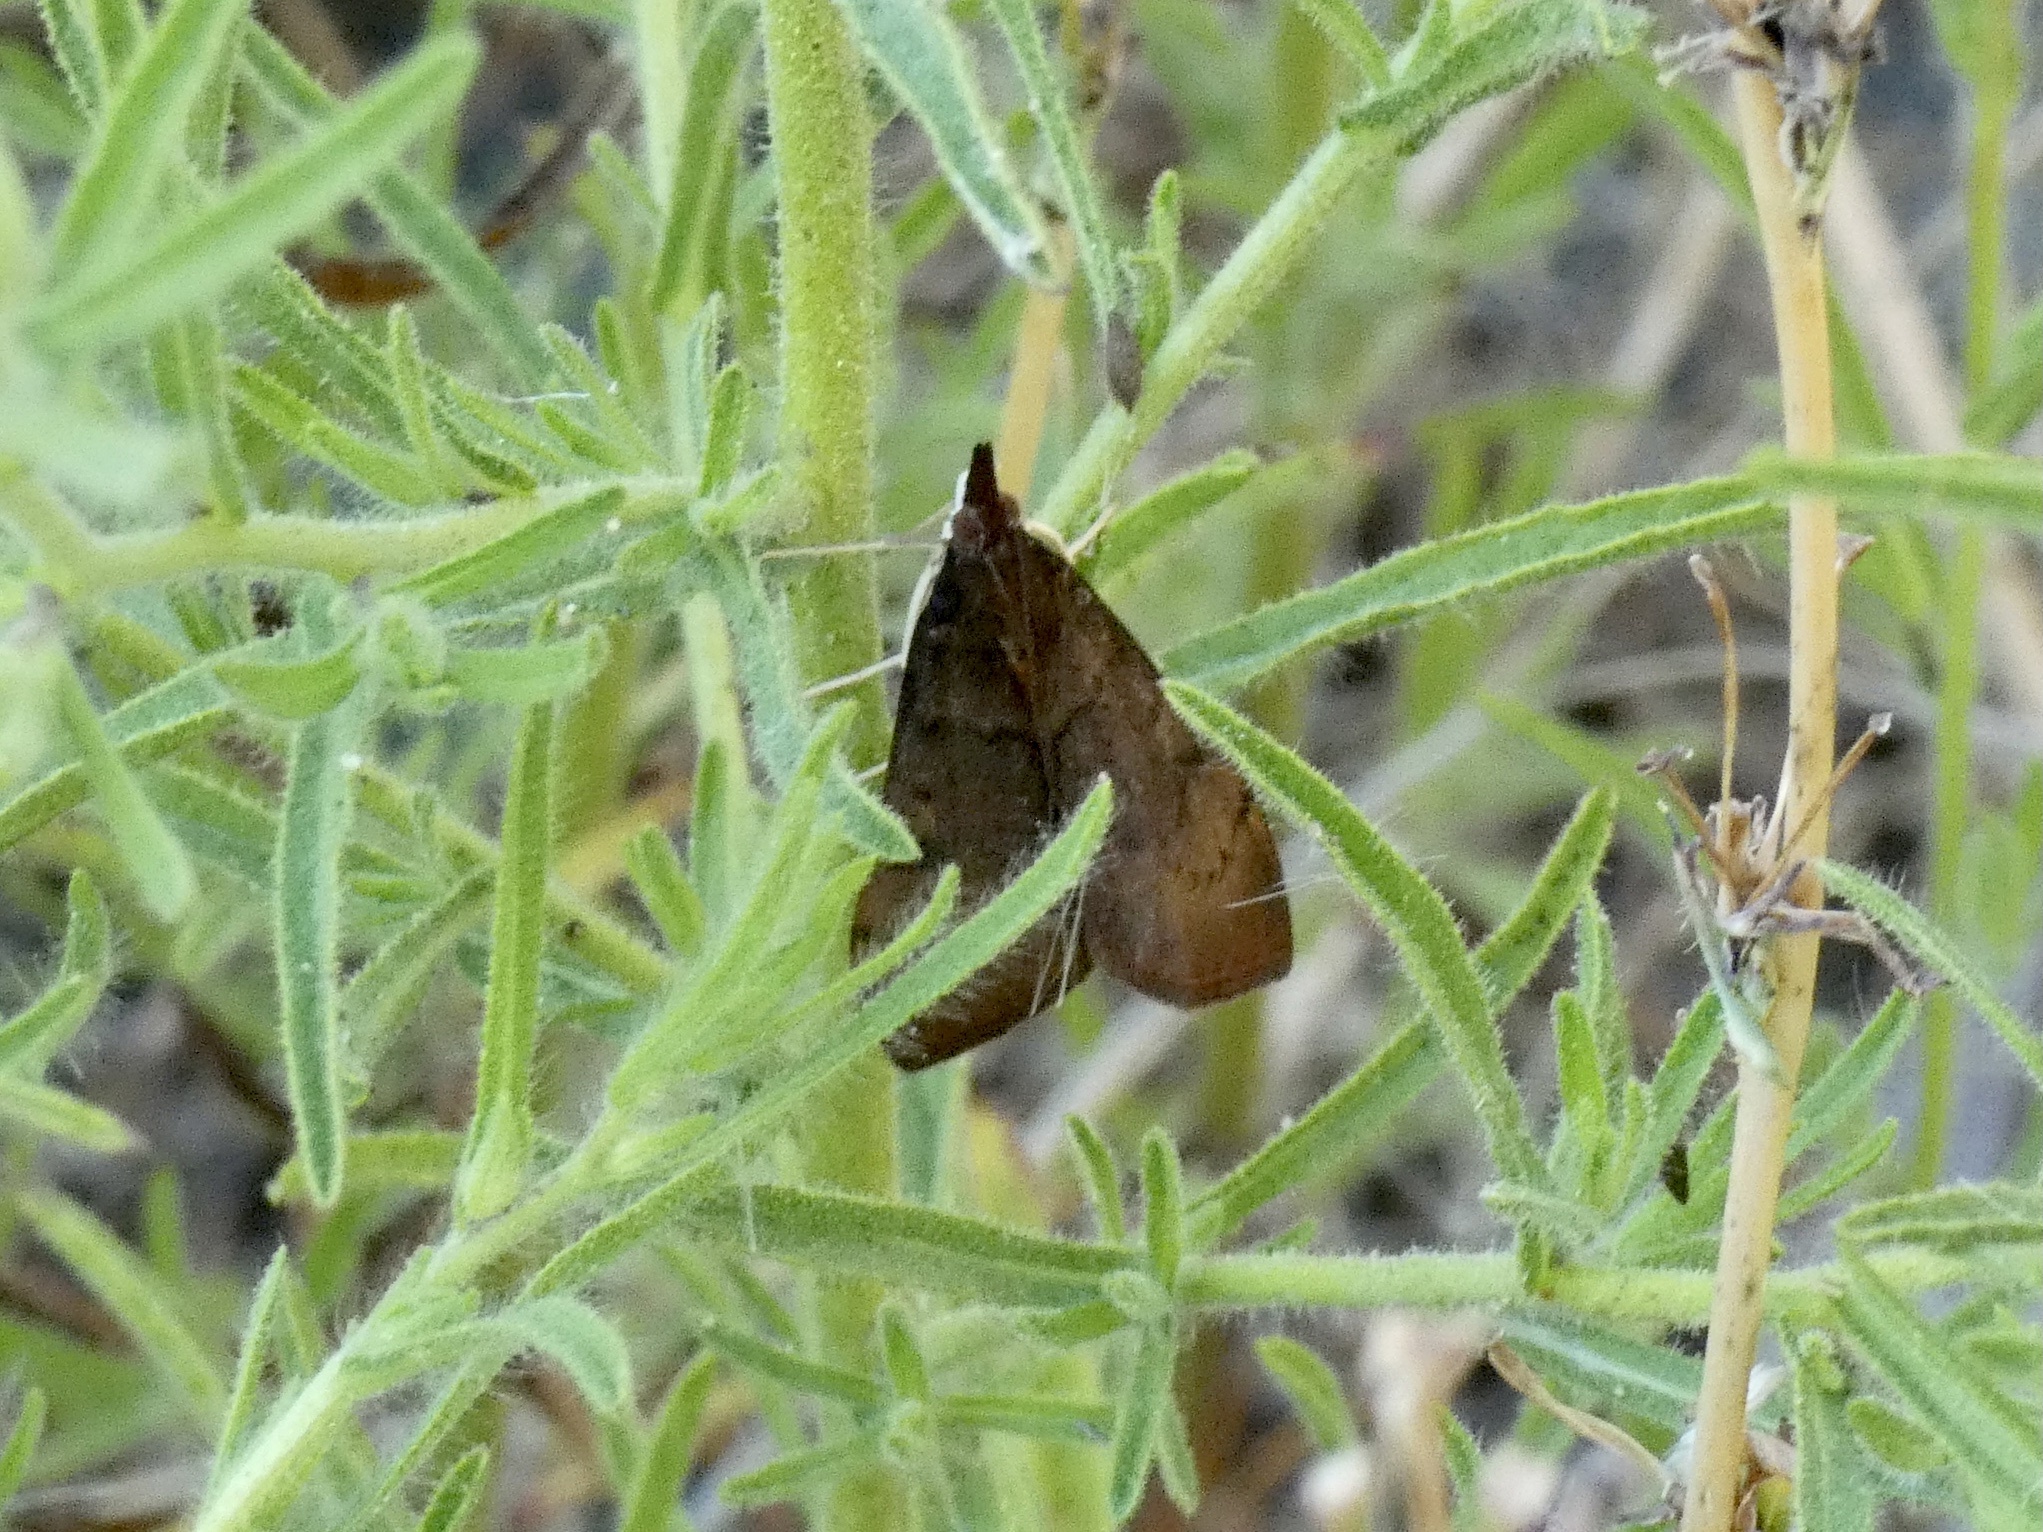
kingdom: Animalia
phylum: Arthropoda
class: Insecta
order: Lepidoptera
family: Crambidae
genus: Uresiphita
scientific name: Uresiphita reversalis
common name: Genista broom moth
